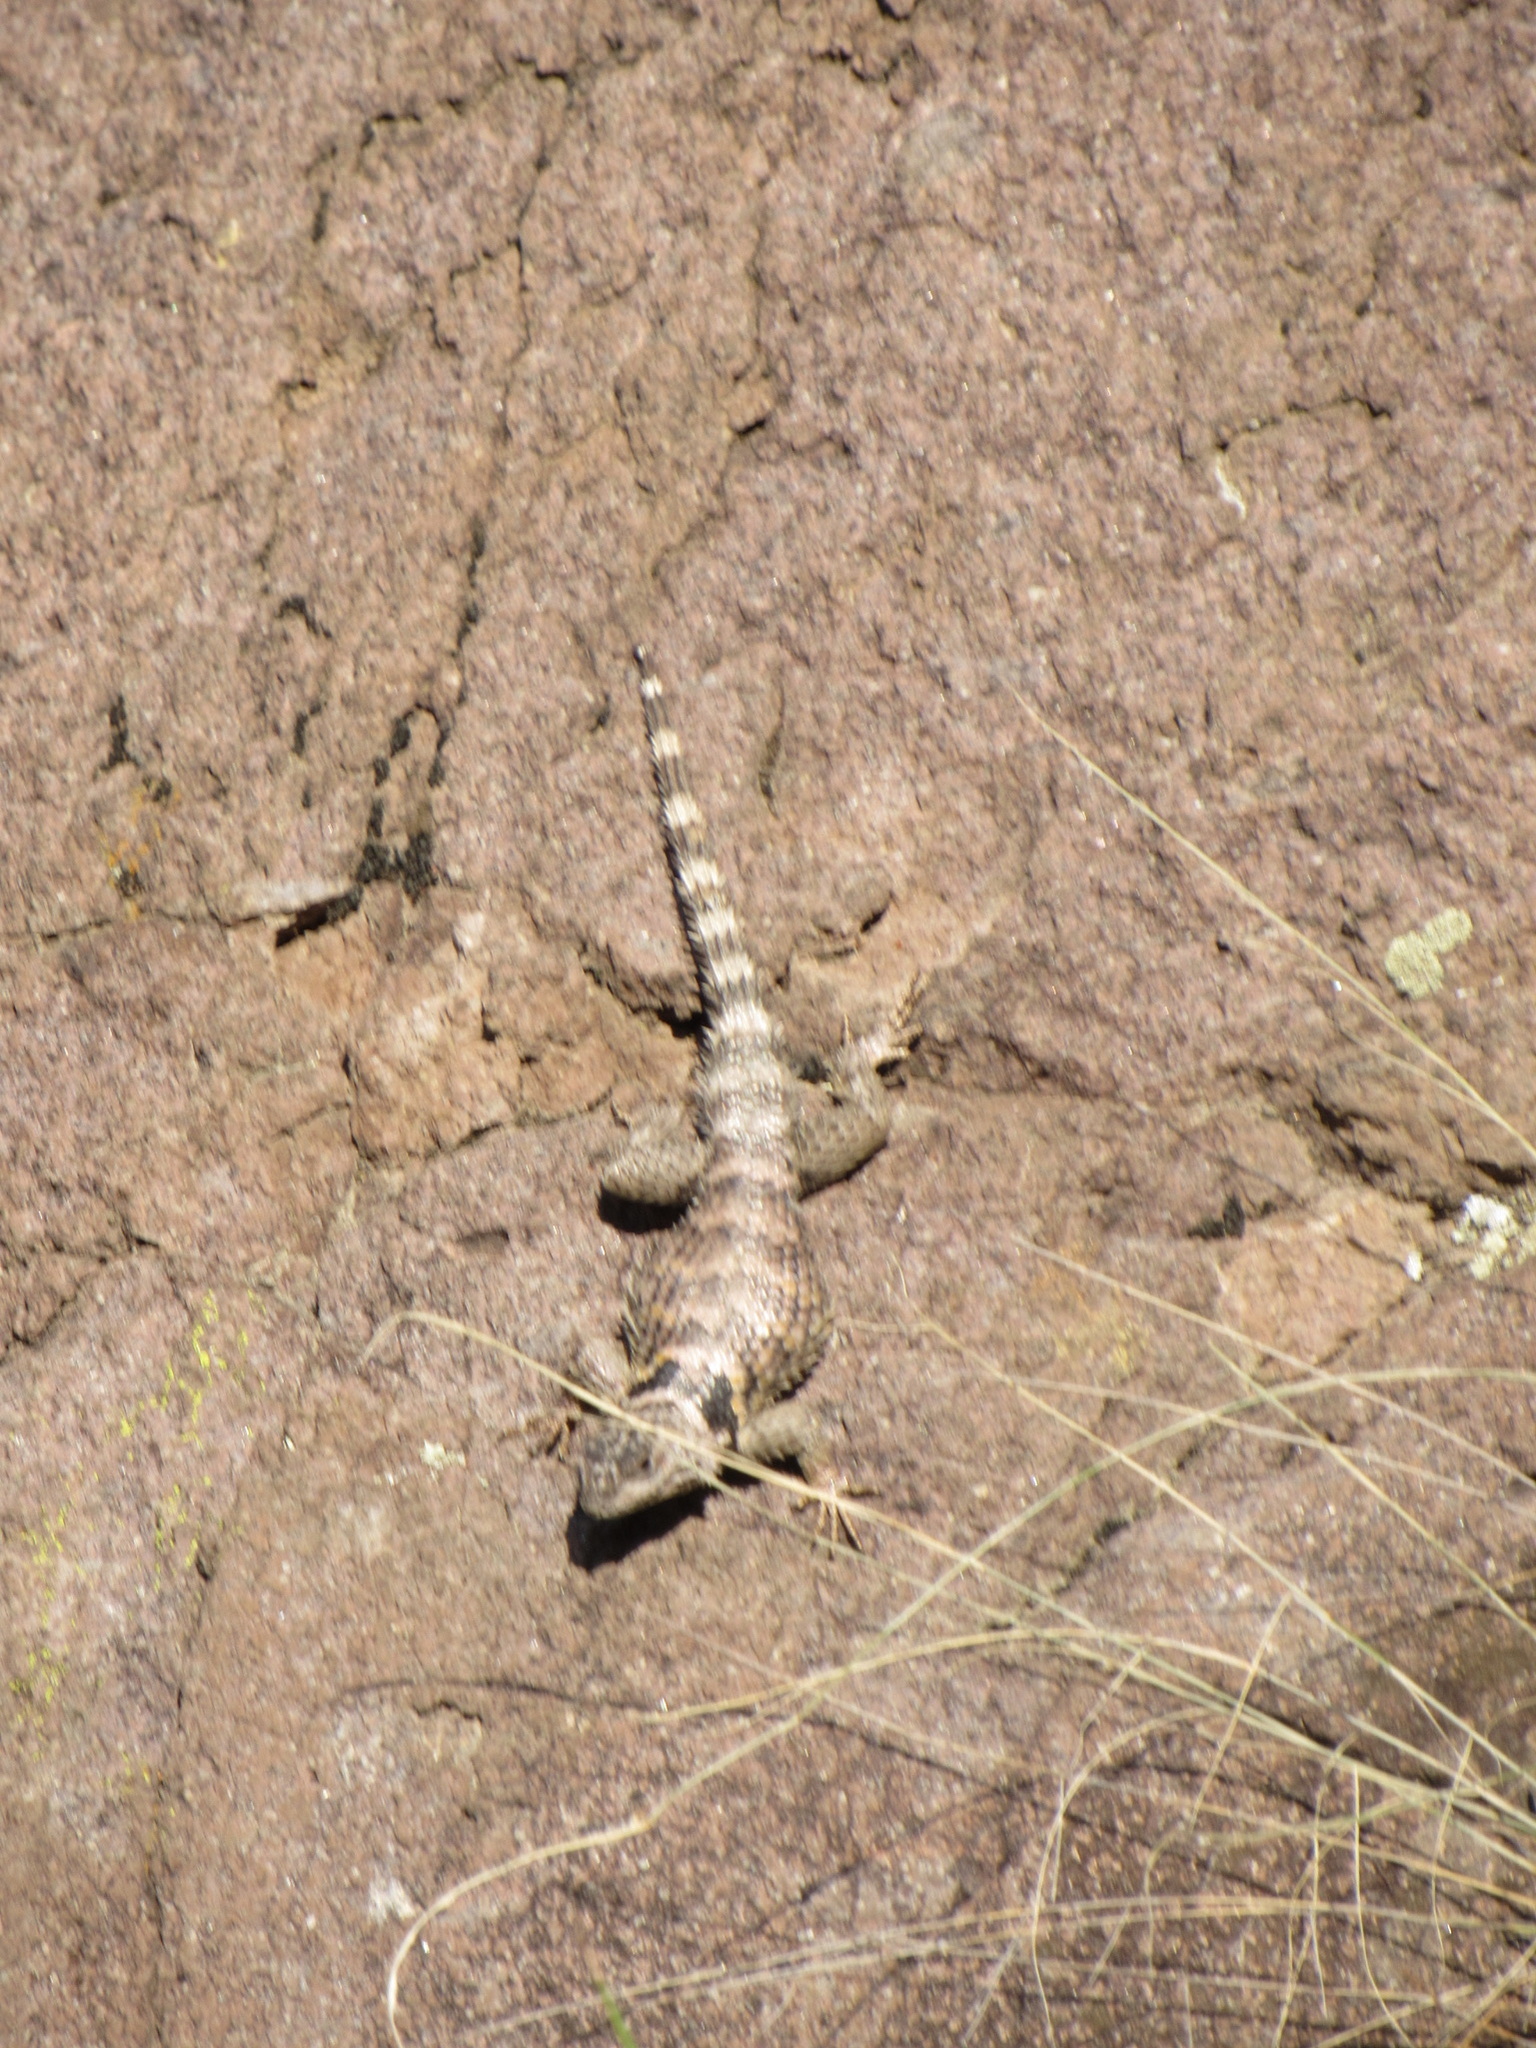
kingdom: Animalia
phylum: Chordata
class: Squamata
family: Phrynosomatidae
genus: Sceloporus
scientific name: Sceloporus poinsettii
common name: Crevice spiny lizard
